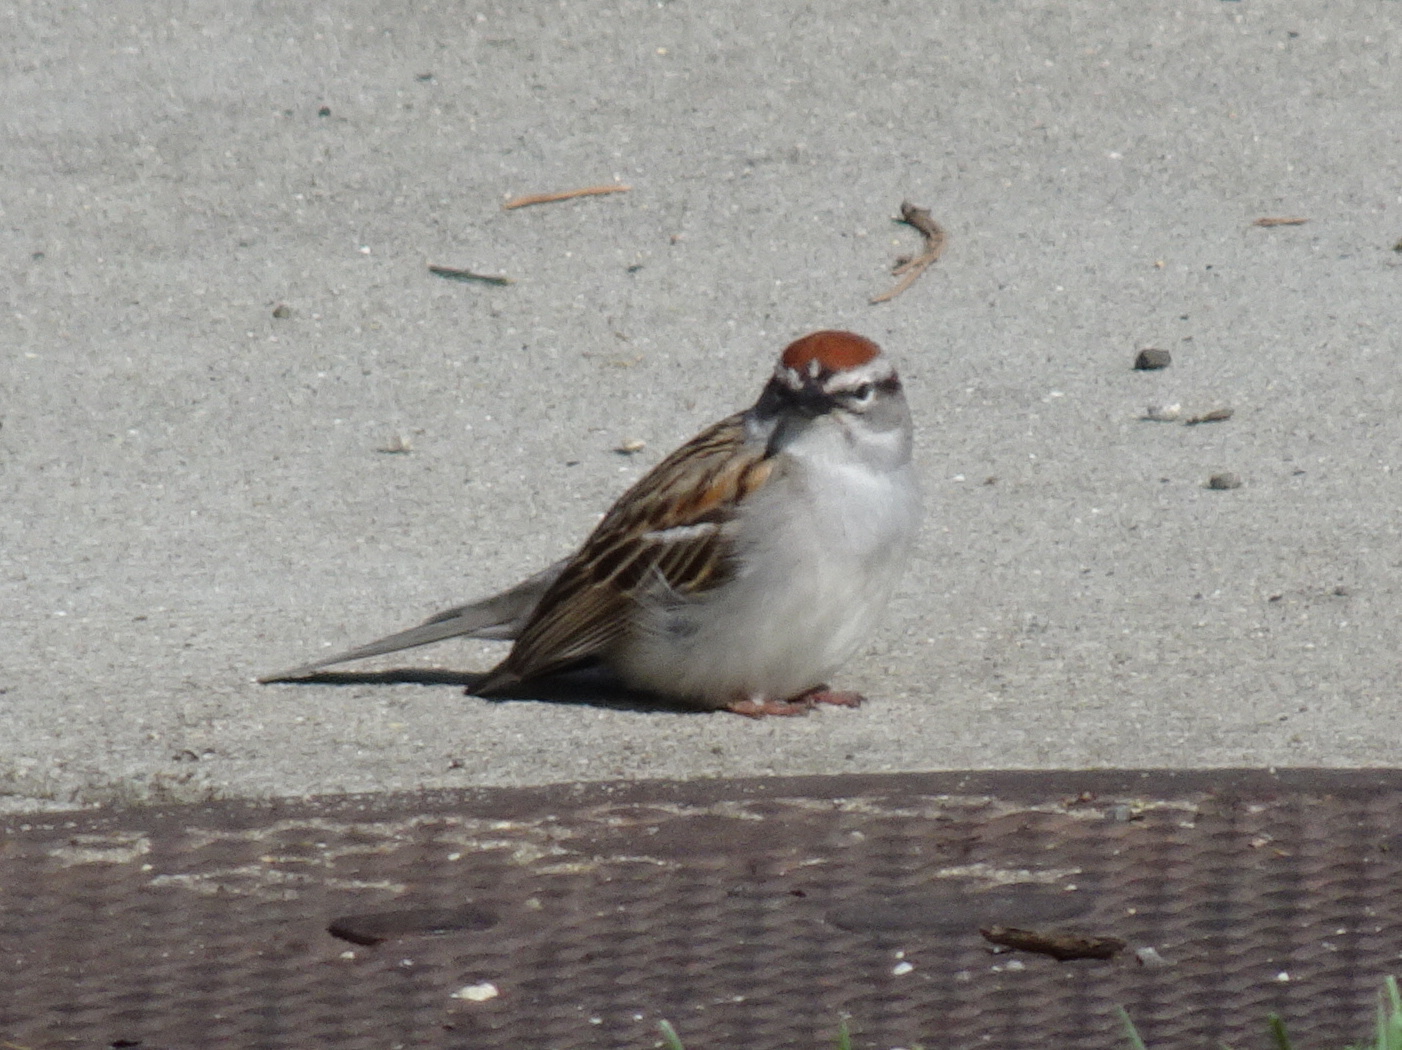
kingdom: Animalia
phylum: Chordata
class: Aves
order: Passeriformes
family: Passerellidae
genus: Spizella
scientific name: Spizella passerina
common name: Chipping sparrow
